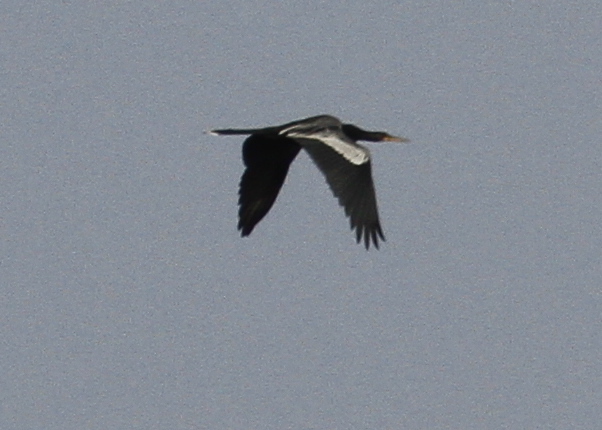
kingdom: Animalia
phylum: Chordata
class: Aves
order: Suliformes
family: Anhingidae
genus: Anhinga
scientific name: Anhinga anhinga
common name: Anhinga
